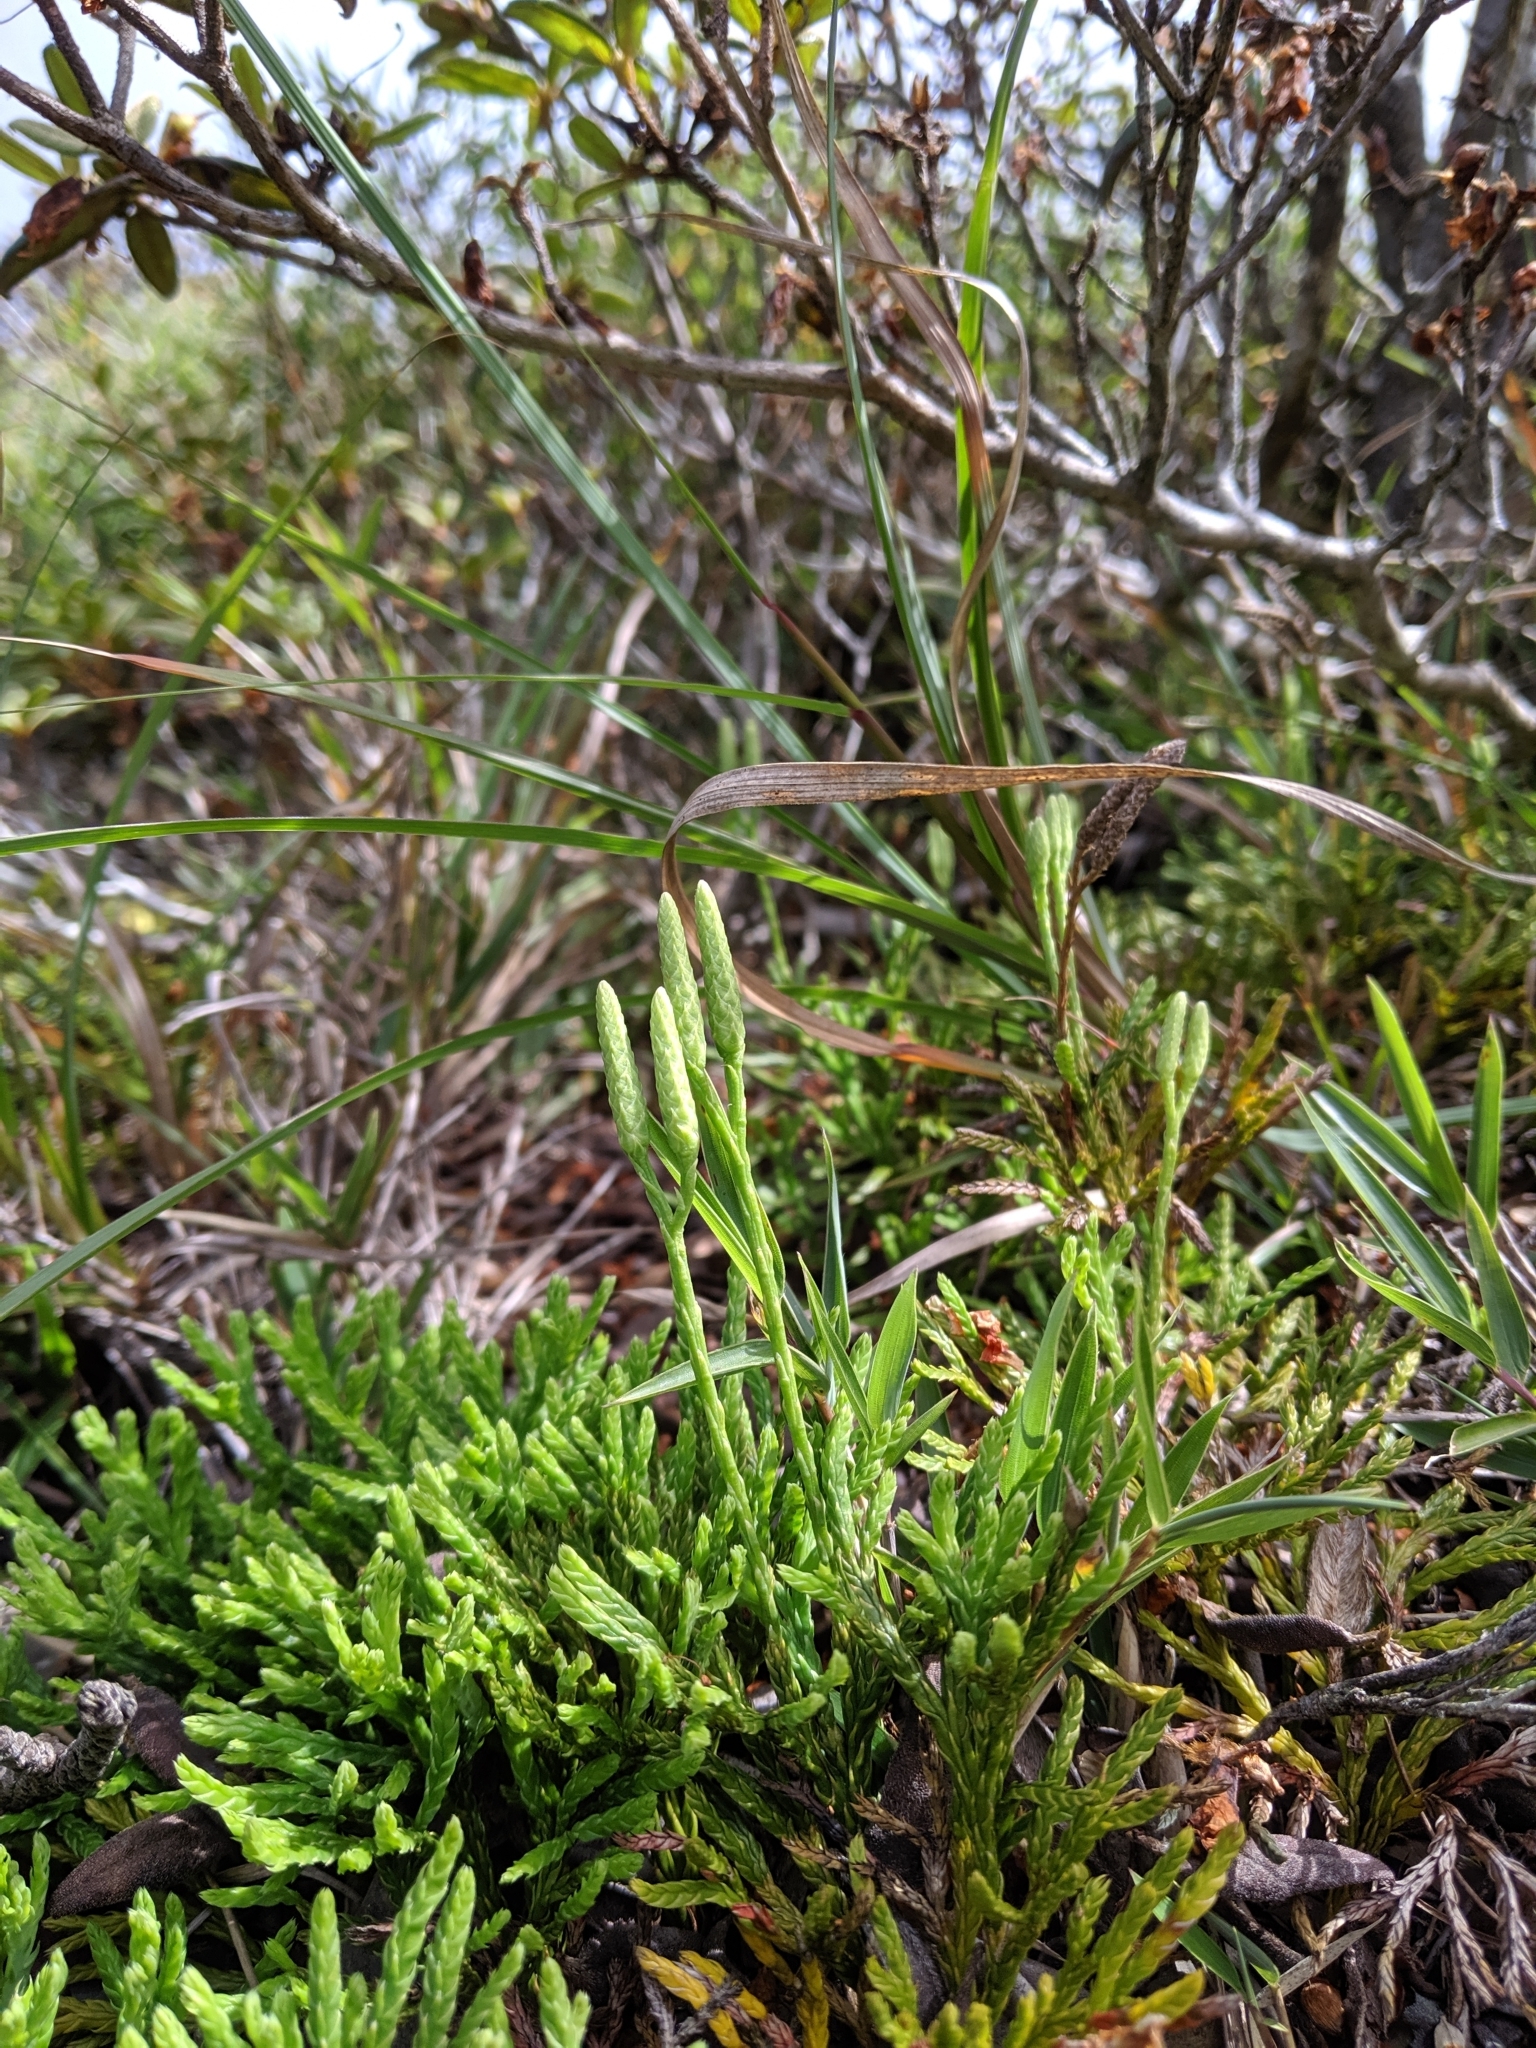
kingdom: Plantae
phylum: Tracheophyta
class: Lycopodiopsida
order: Lycopodiales
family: Lycopodiaceae
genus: Diphasiastrum
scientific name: Diphasiastrum yueshanense
